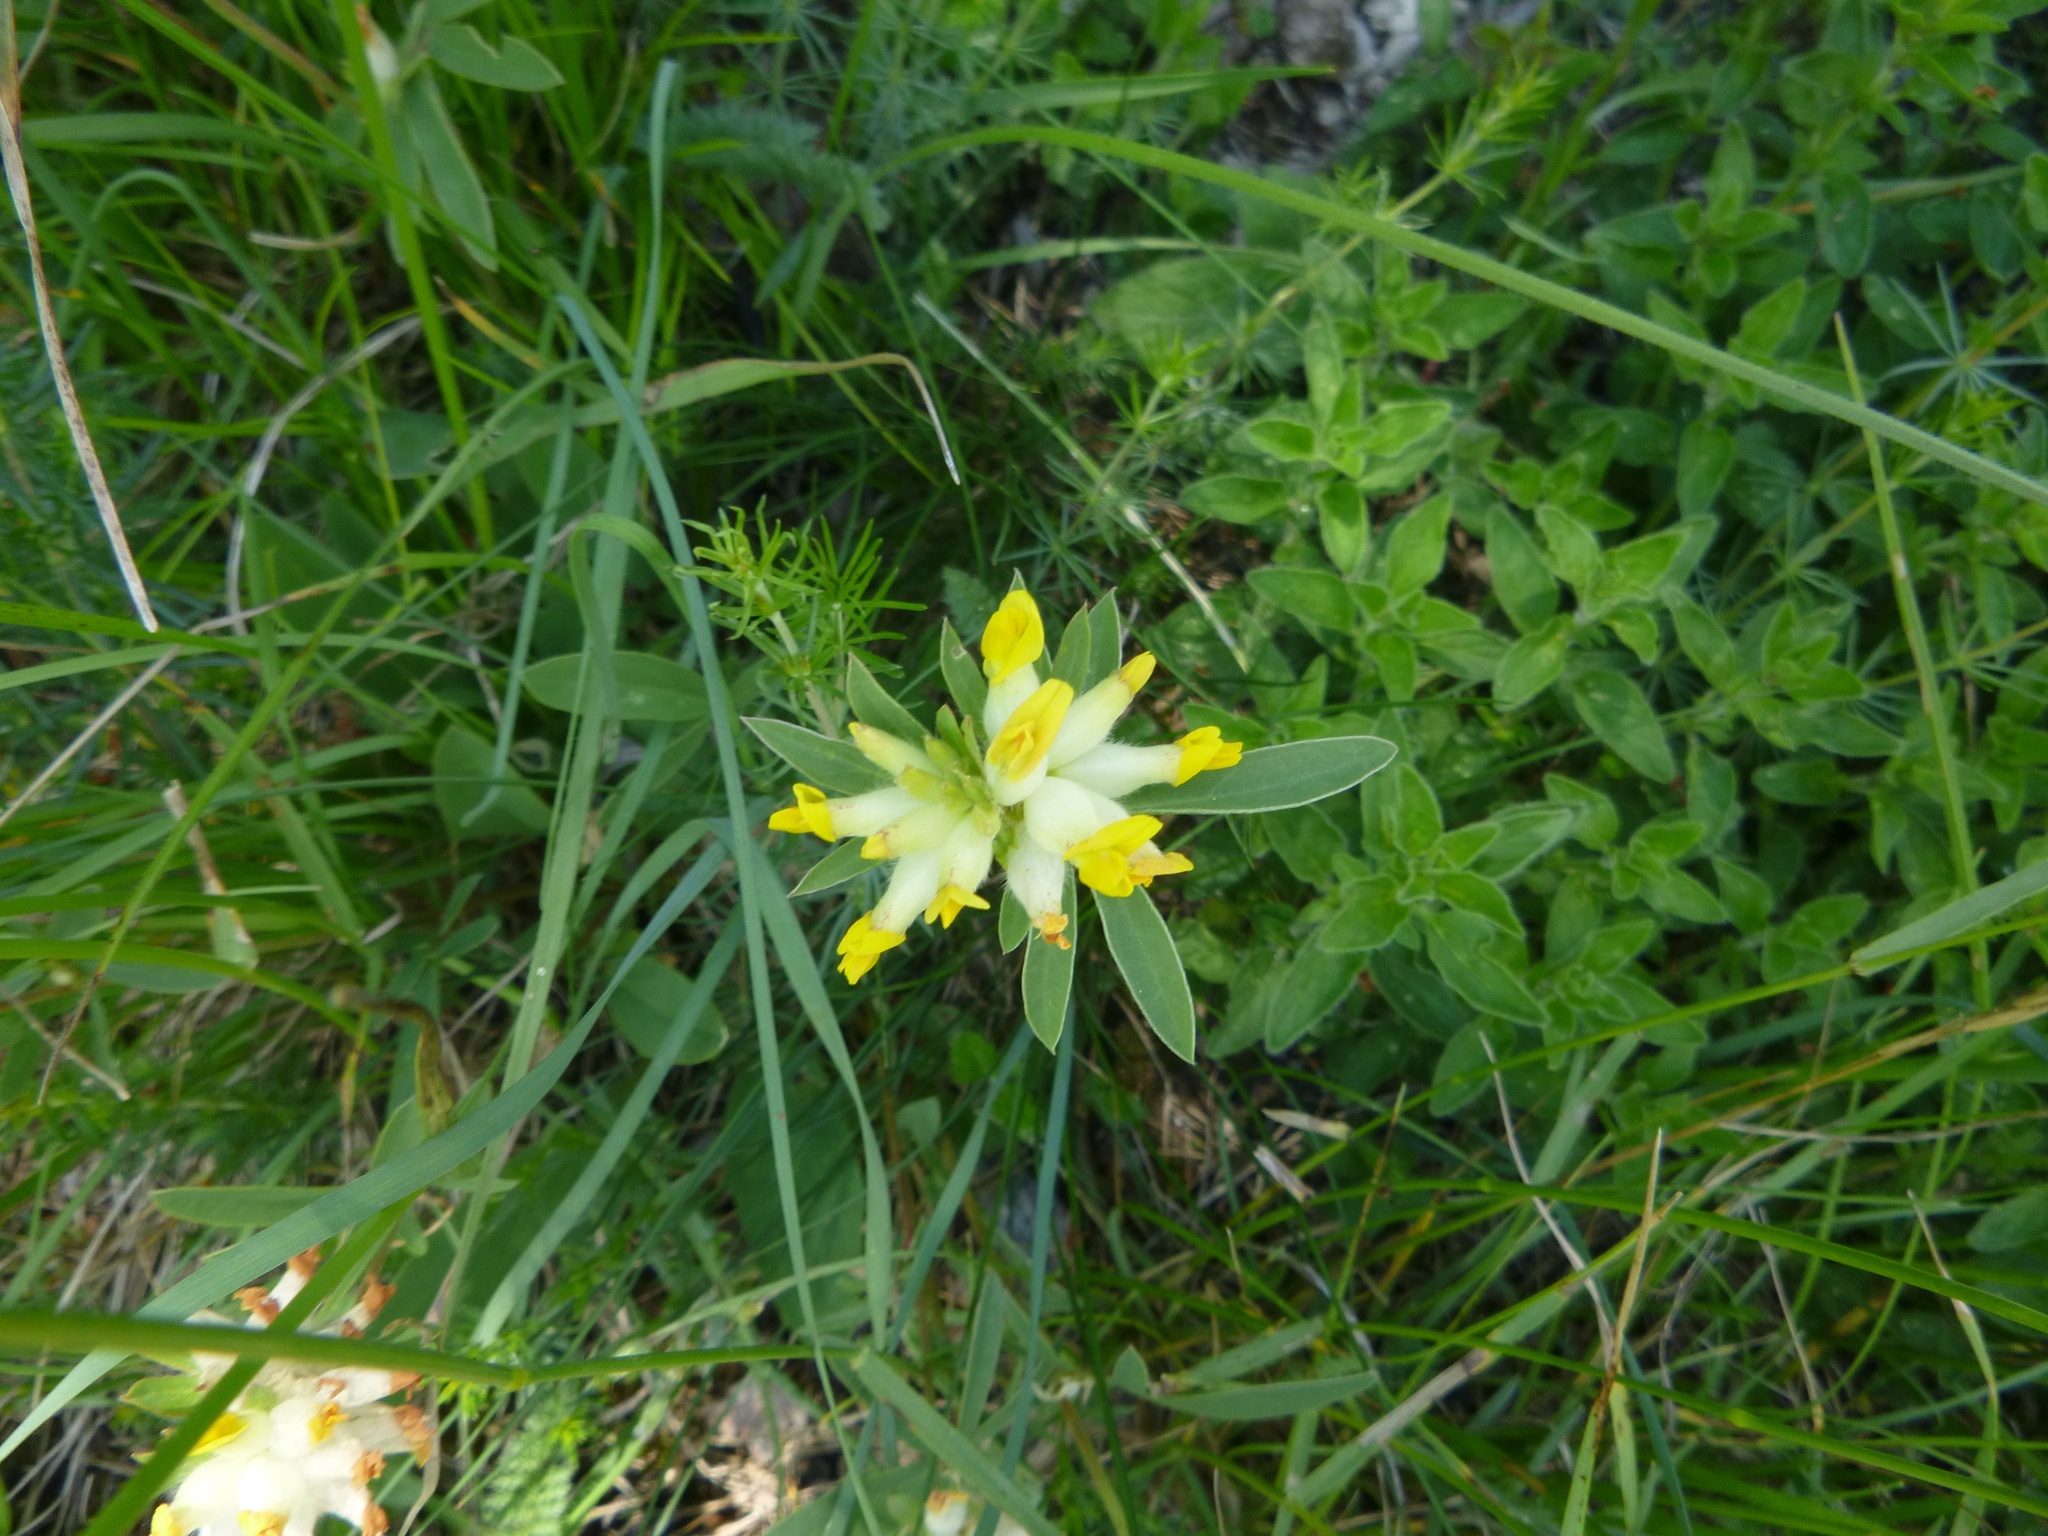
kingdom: Plantae
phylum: Tracheophyta
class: Magnoliopsida
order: Fabales
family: Fabaceae
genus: Anthyllis
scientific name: Anthyllis vulneraria
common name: Kidney vetch
